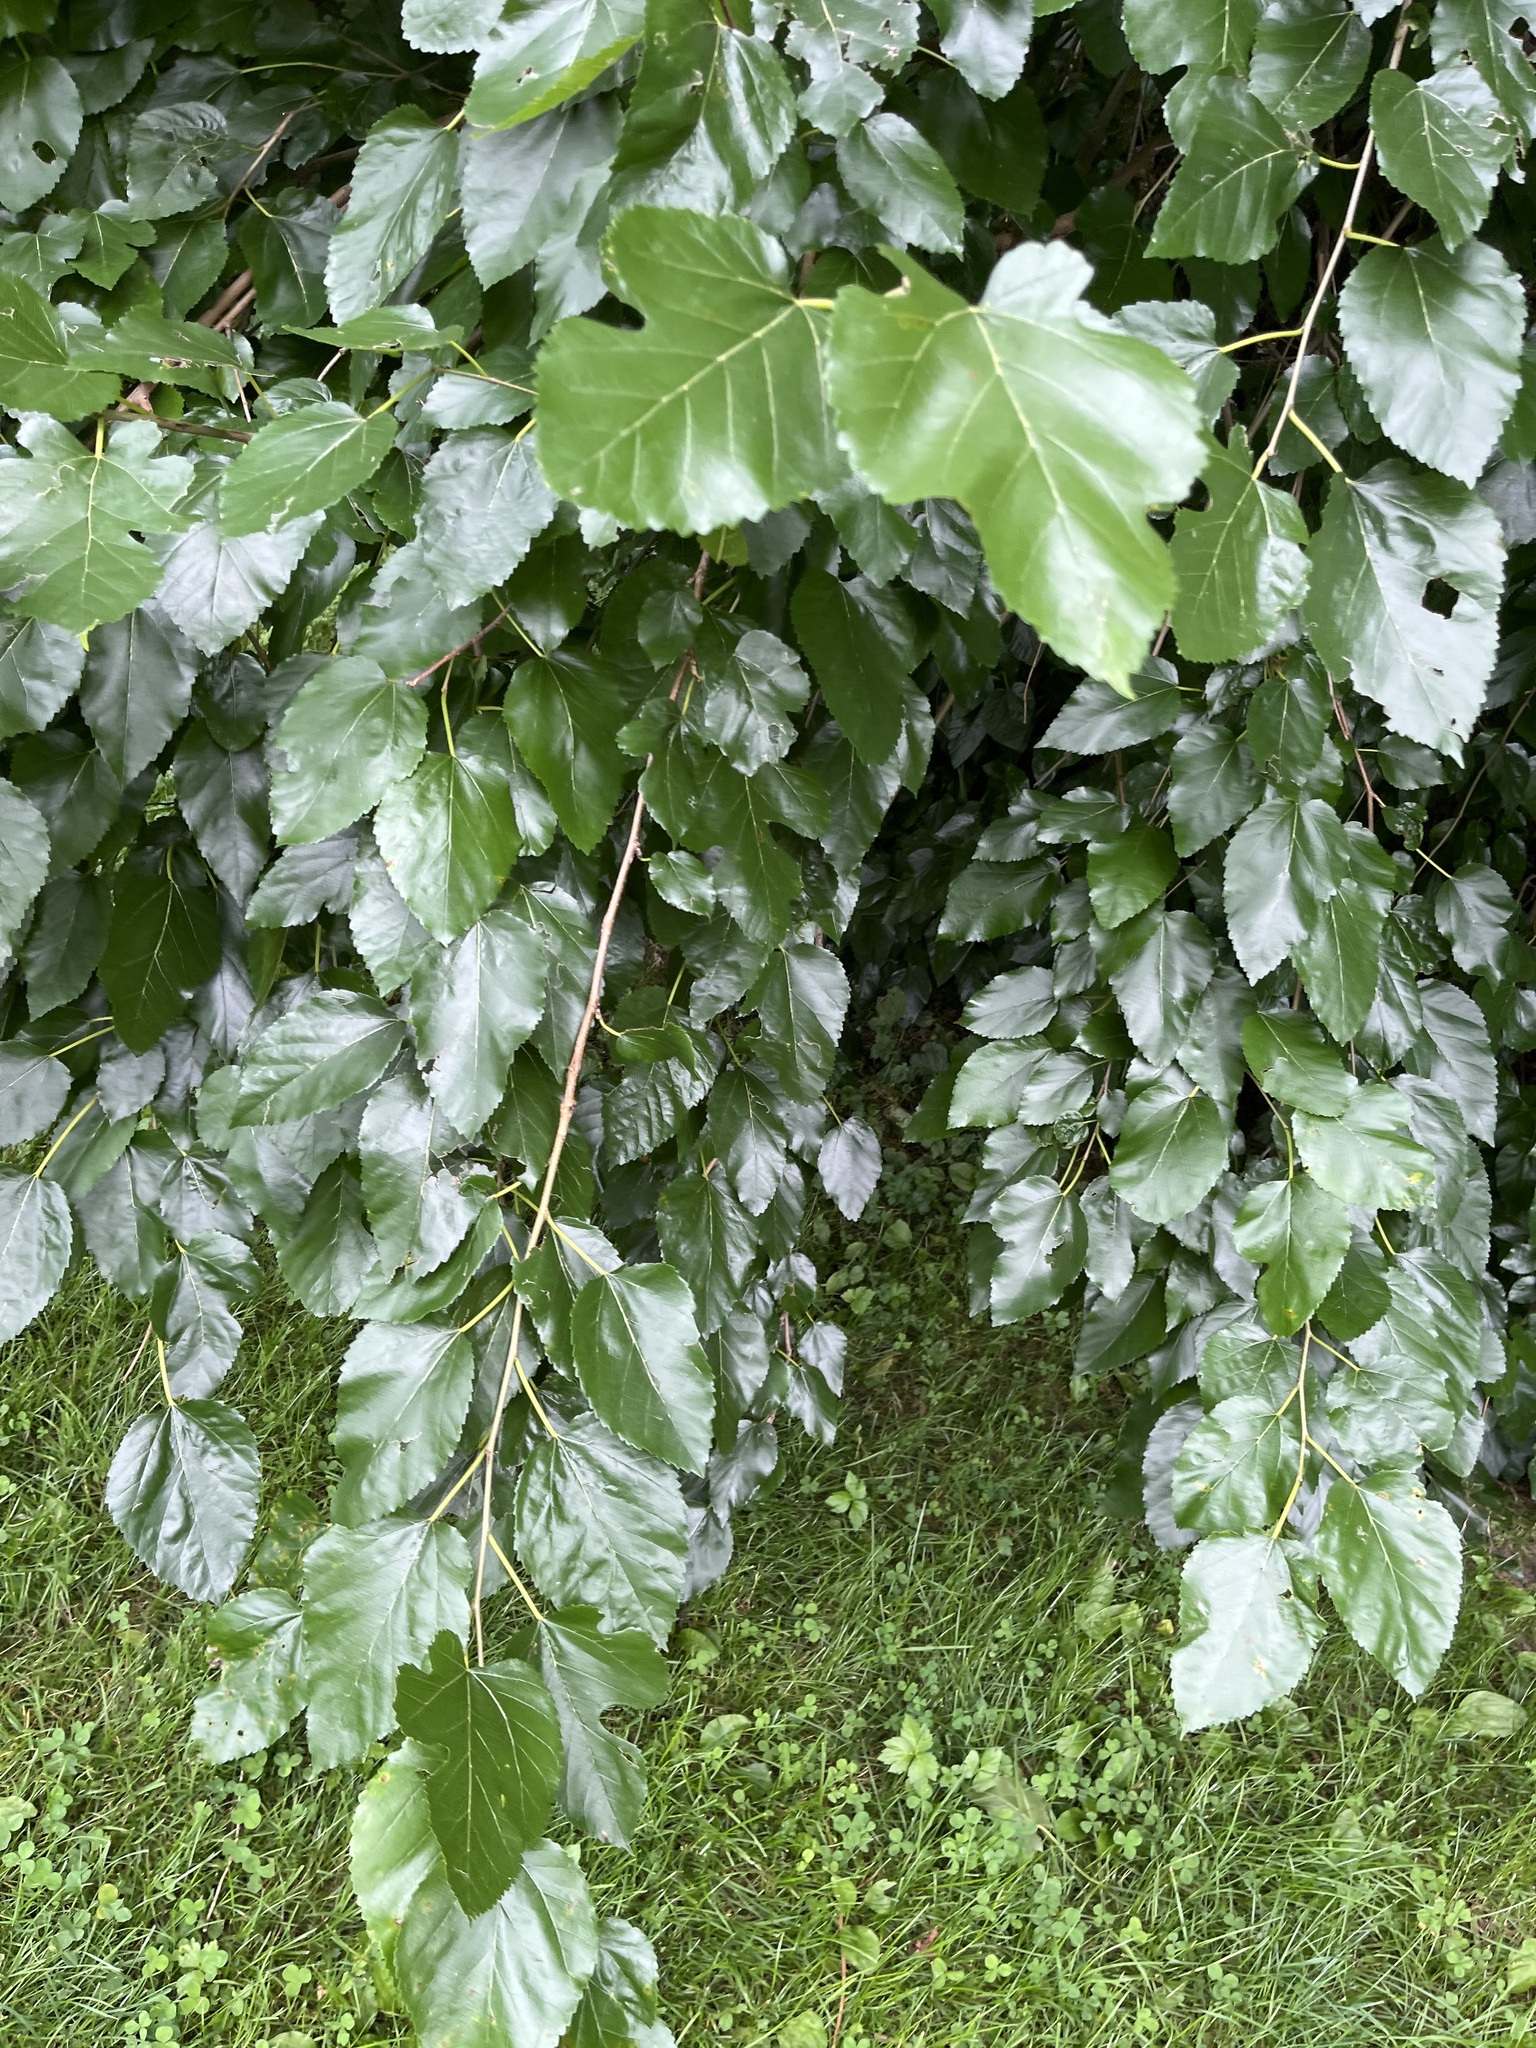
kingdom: Plantae
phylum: Tracheophyta
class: Magnoliopsida
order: Rosales
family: Moraceae
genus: Morus
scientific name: Morus alba
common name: White mulberry
